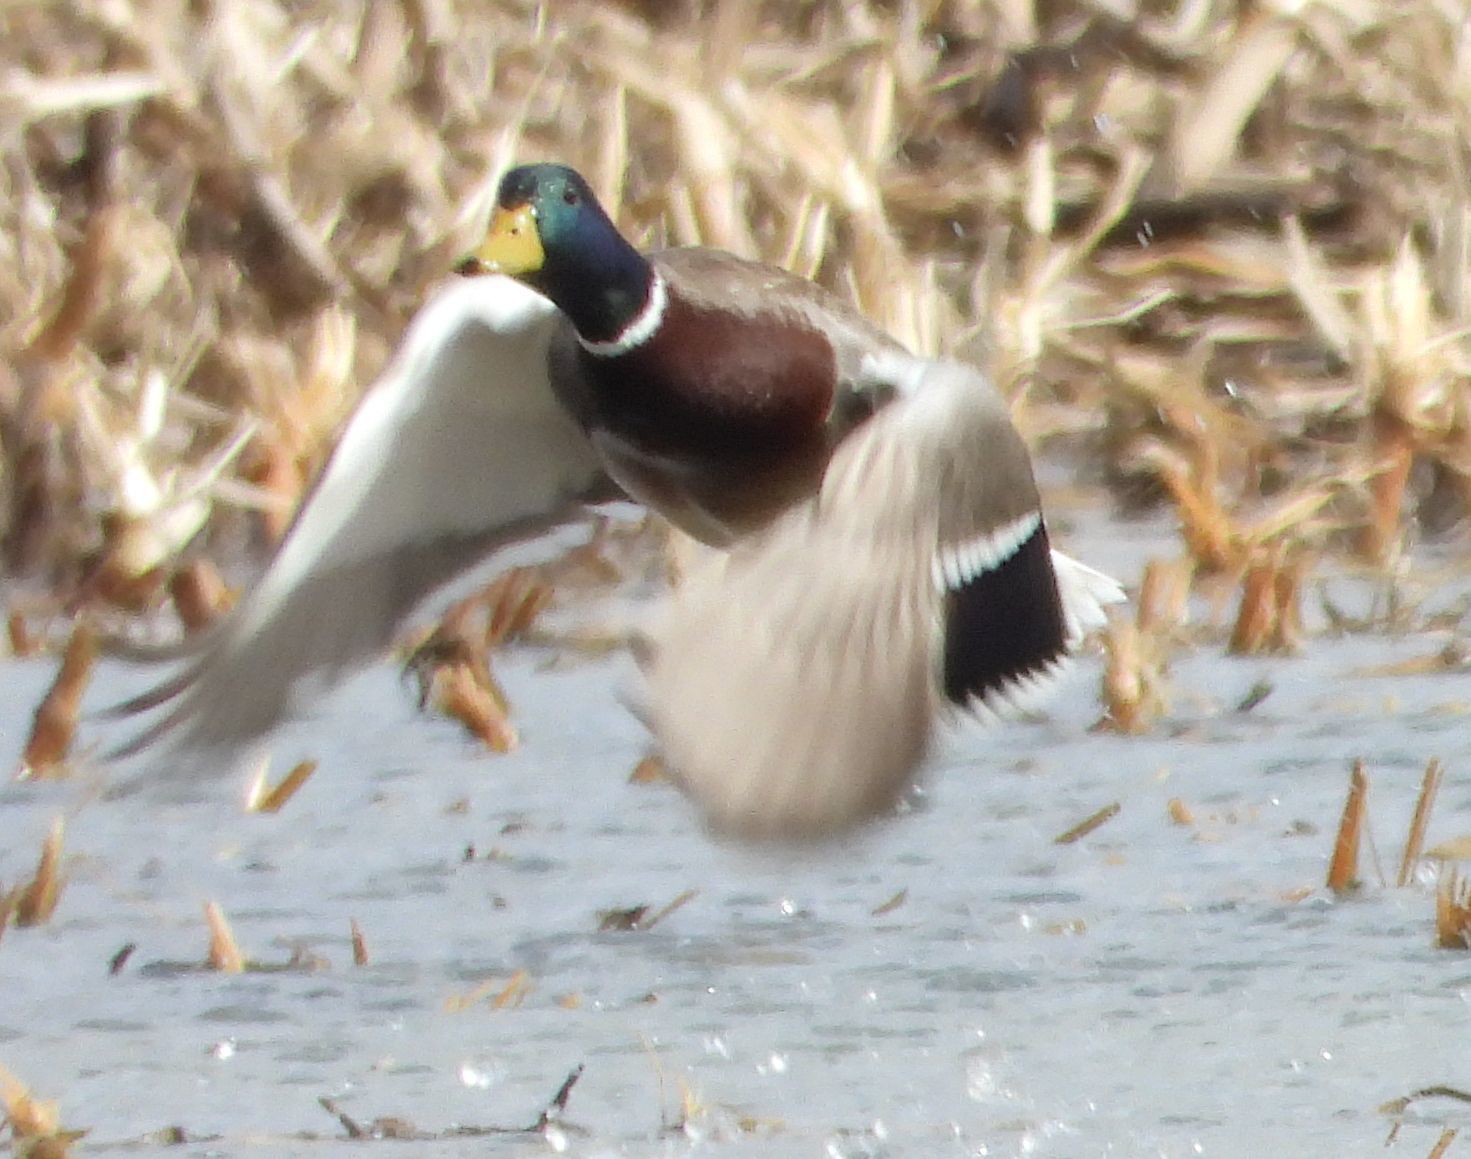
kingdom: Animalia
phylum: Chordata
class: Aves
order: Anseriformes
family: Anatidae
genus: Anas
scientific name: Anas platyrhynchos
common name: Mallard
